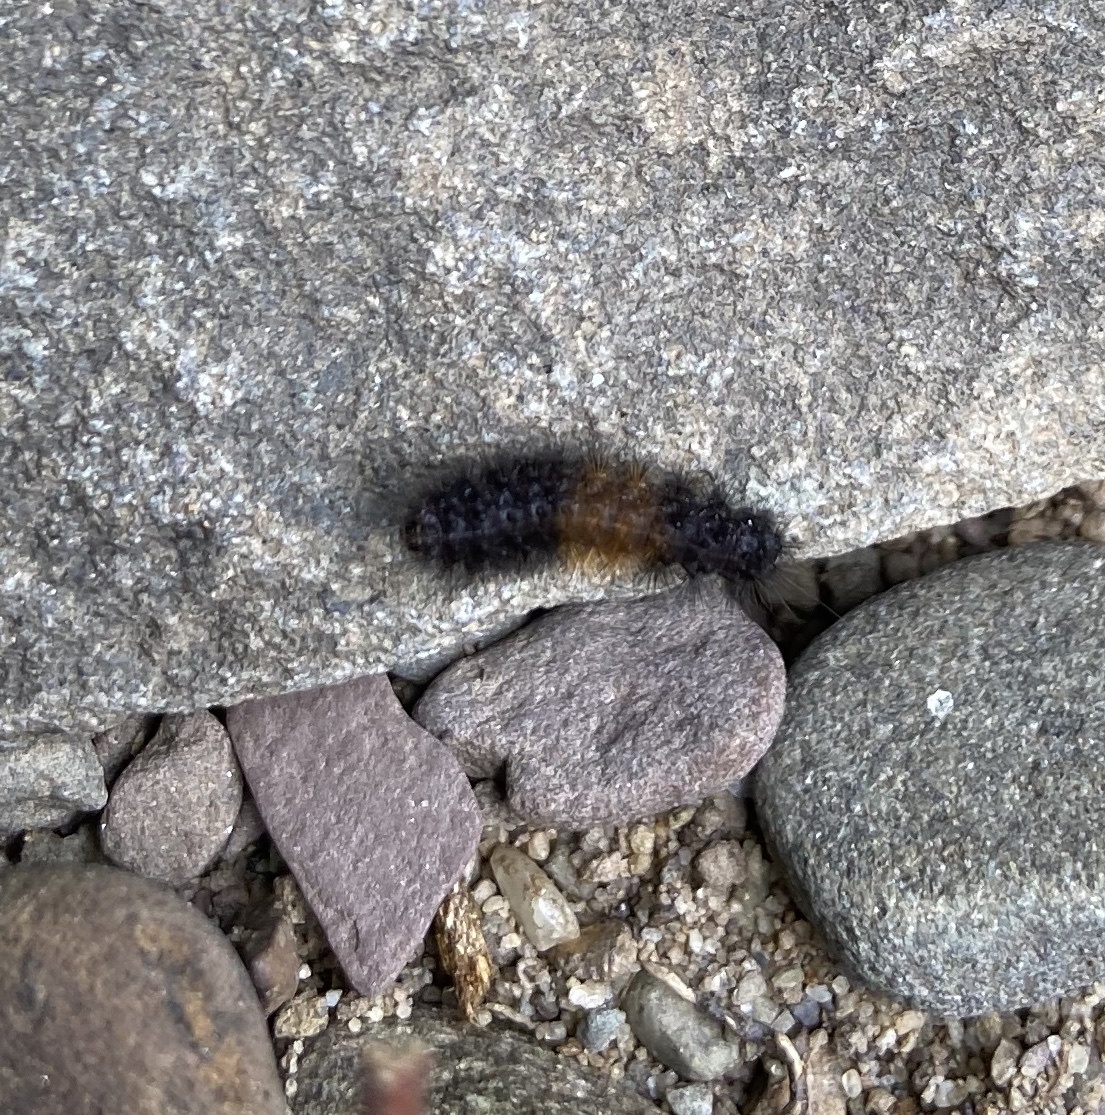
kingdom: Animalia
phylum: Arthropoda
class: Insecta
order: Lepidoptera
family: Erebidae
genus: Pyrrharctia
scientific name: Pyrrharctia isabella
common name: Isabella tiger moth
